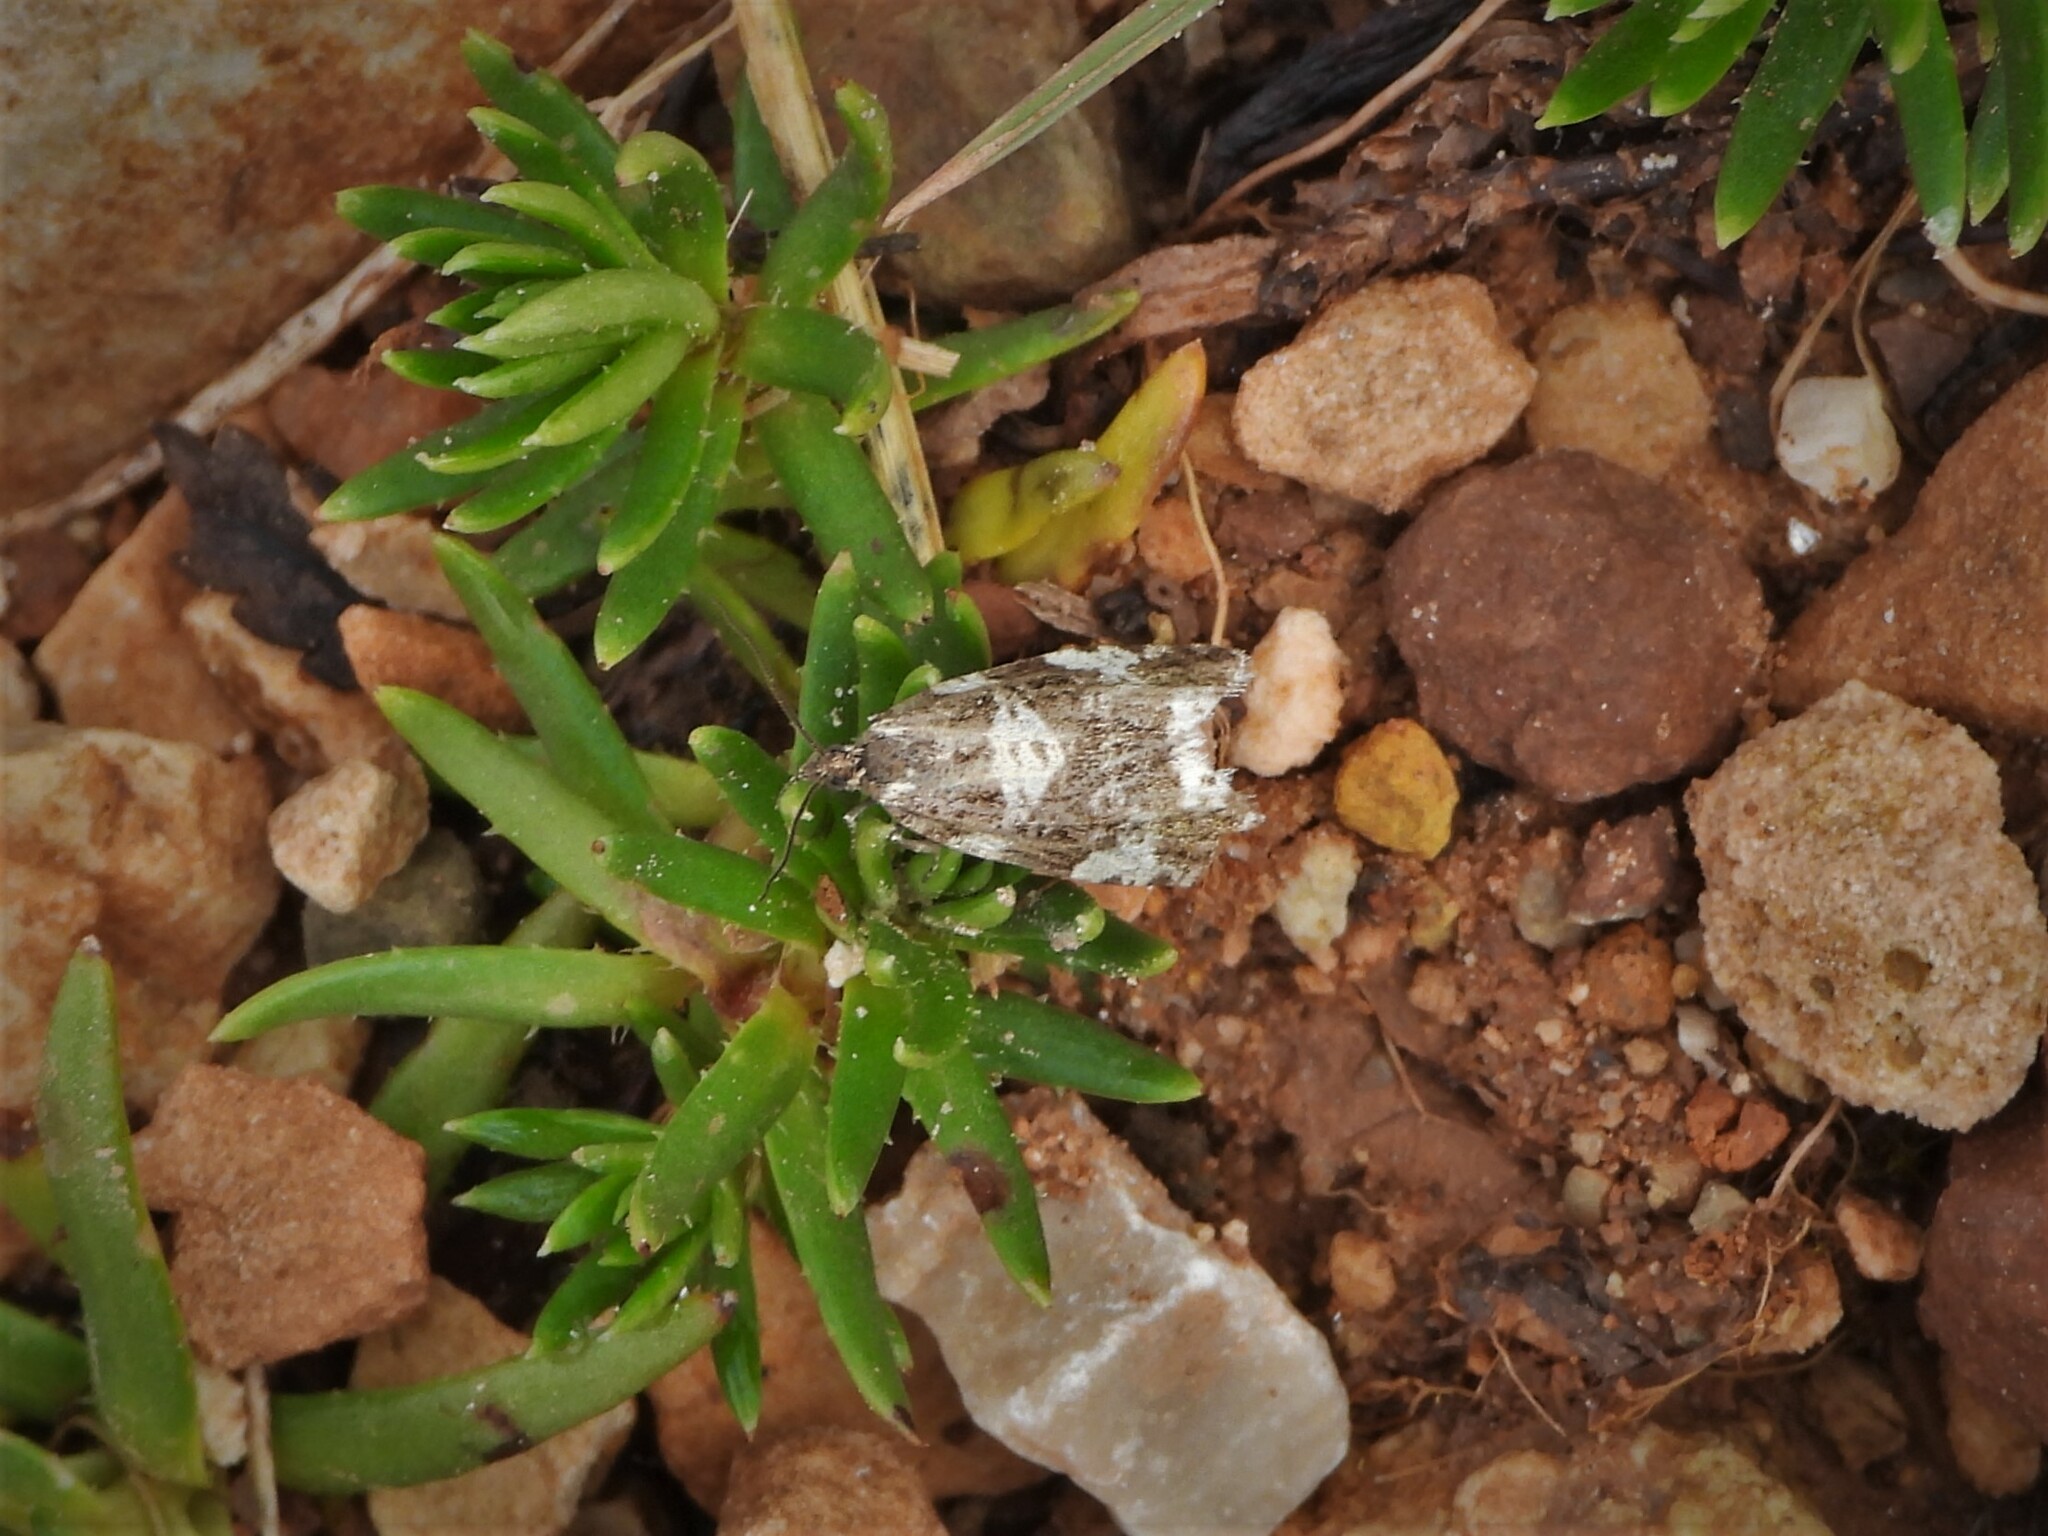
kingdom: Animalia
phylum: Arthropoda
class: Insecta
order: Lepidoptera
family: Tortricidae
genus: Aterpia
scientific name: Aterpia corticana
